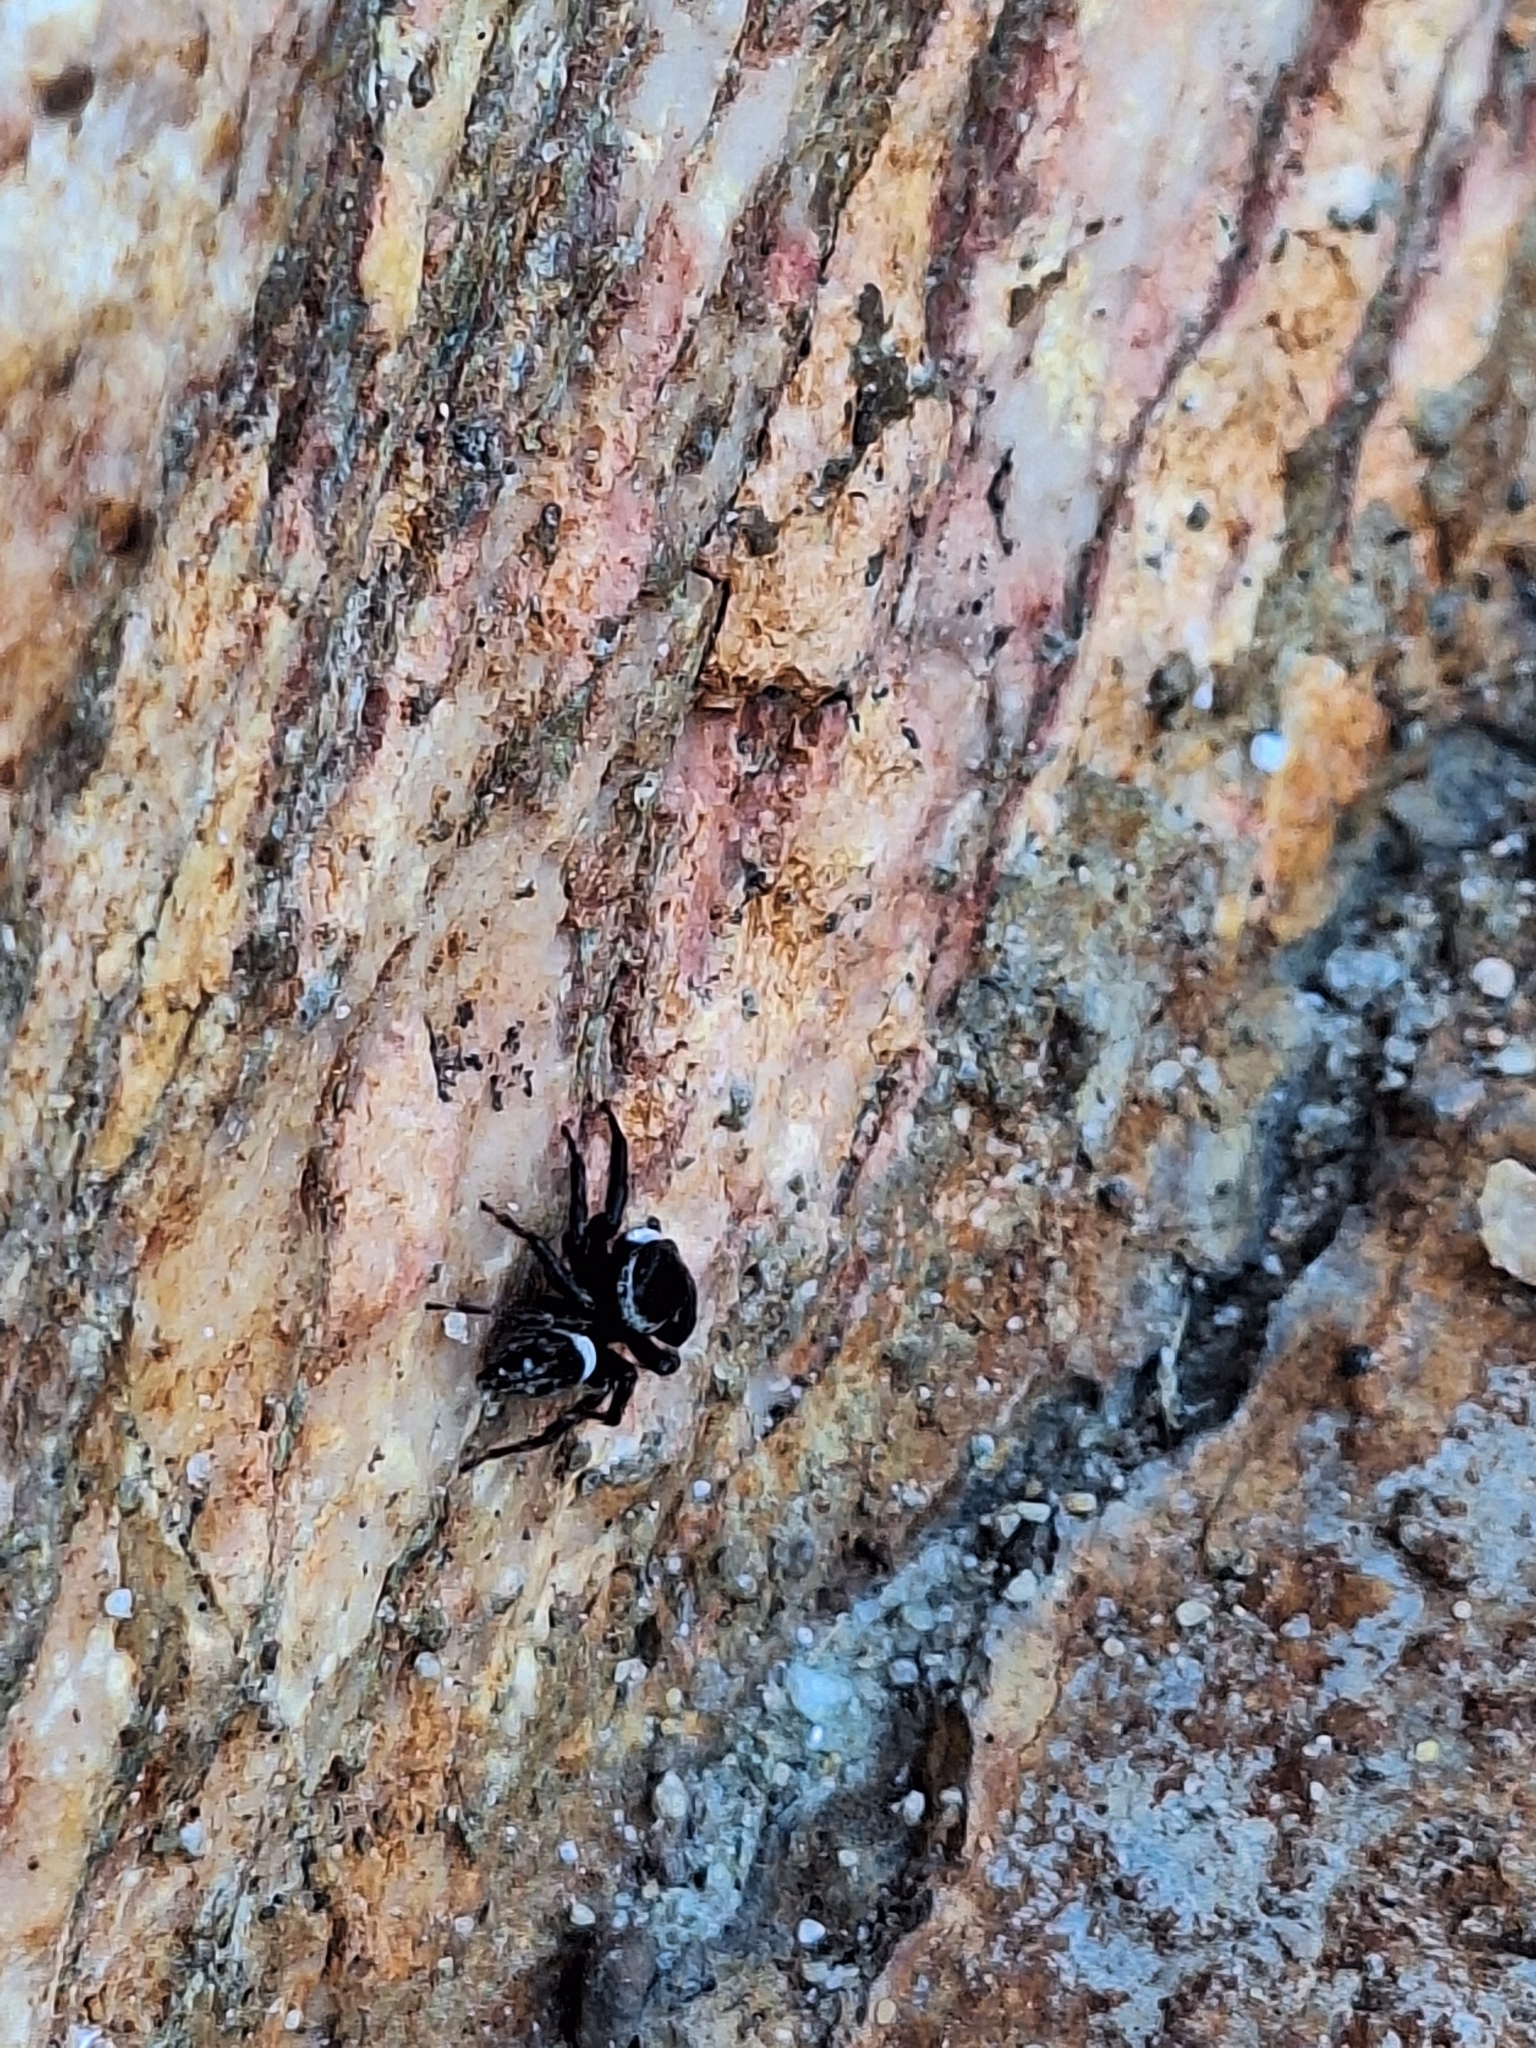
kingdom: Animalia
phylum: Arthropoda
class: Arachnida
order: Araneae
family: Salticidae
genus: Hasarius
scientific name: Hasarius adansoni
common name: Jumping spider
